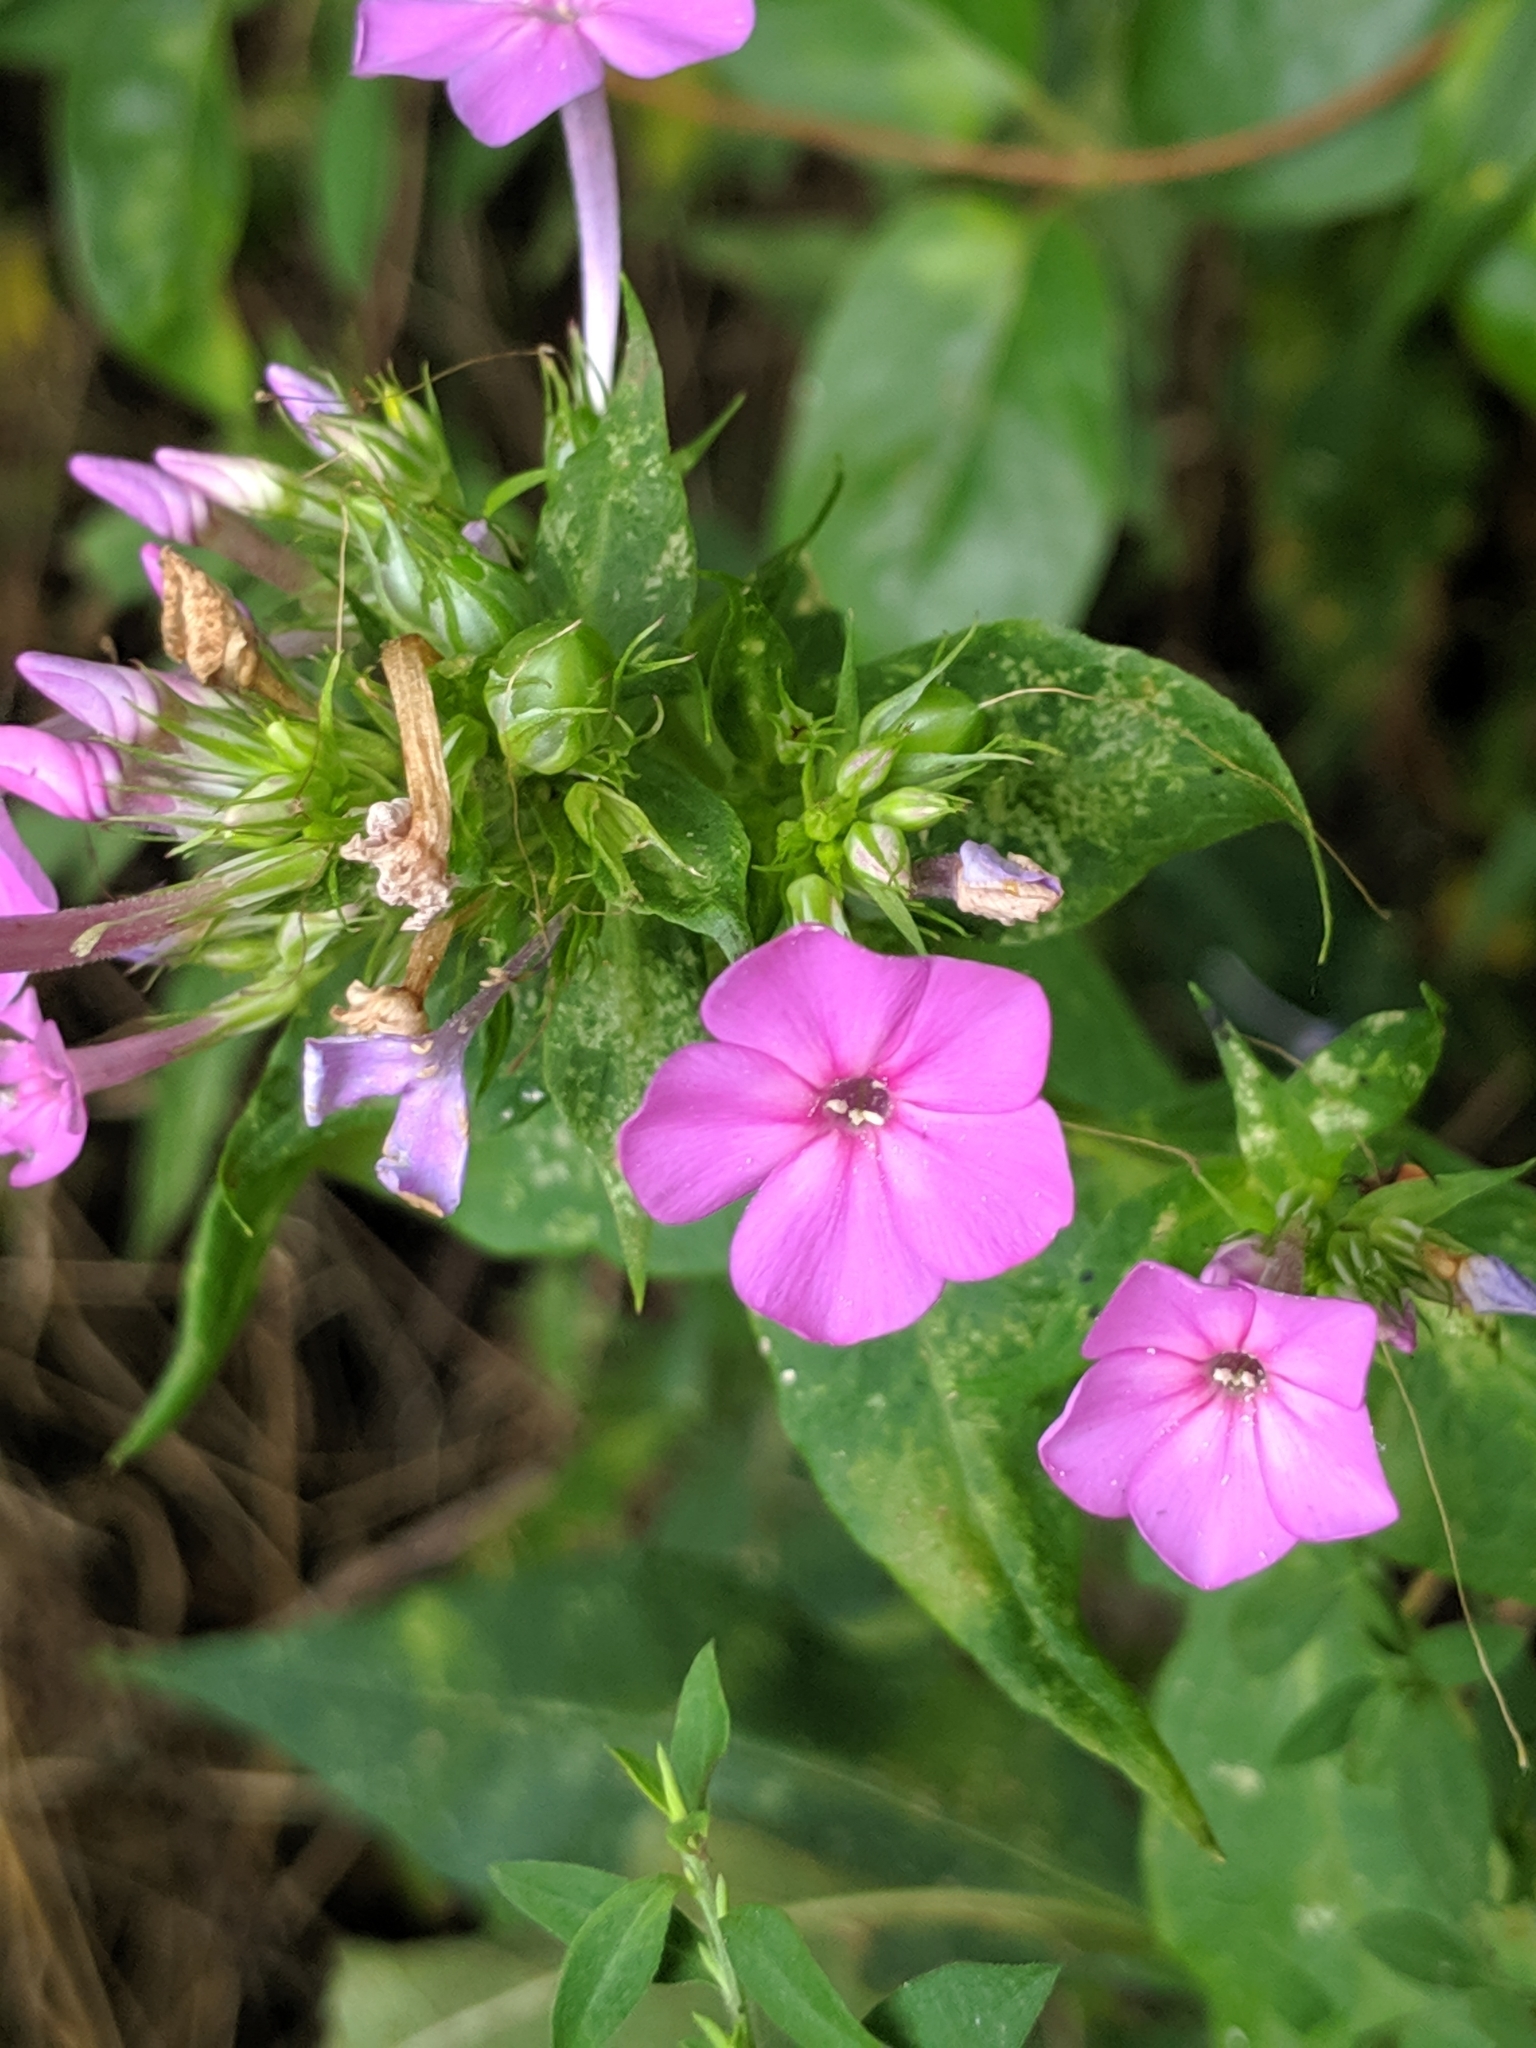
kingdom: Plantae
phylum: Tracheophyta
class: Magnoliopsida
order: Ericales
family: Polemoniaceae
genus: Phlox
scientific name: Phlox paniculata
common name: Fall phlox
